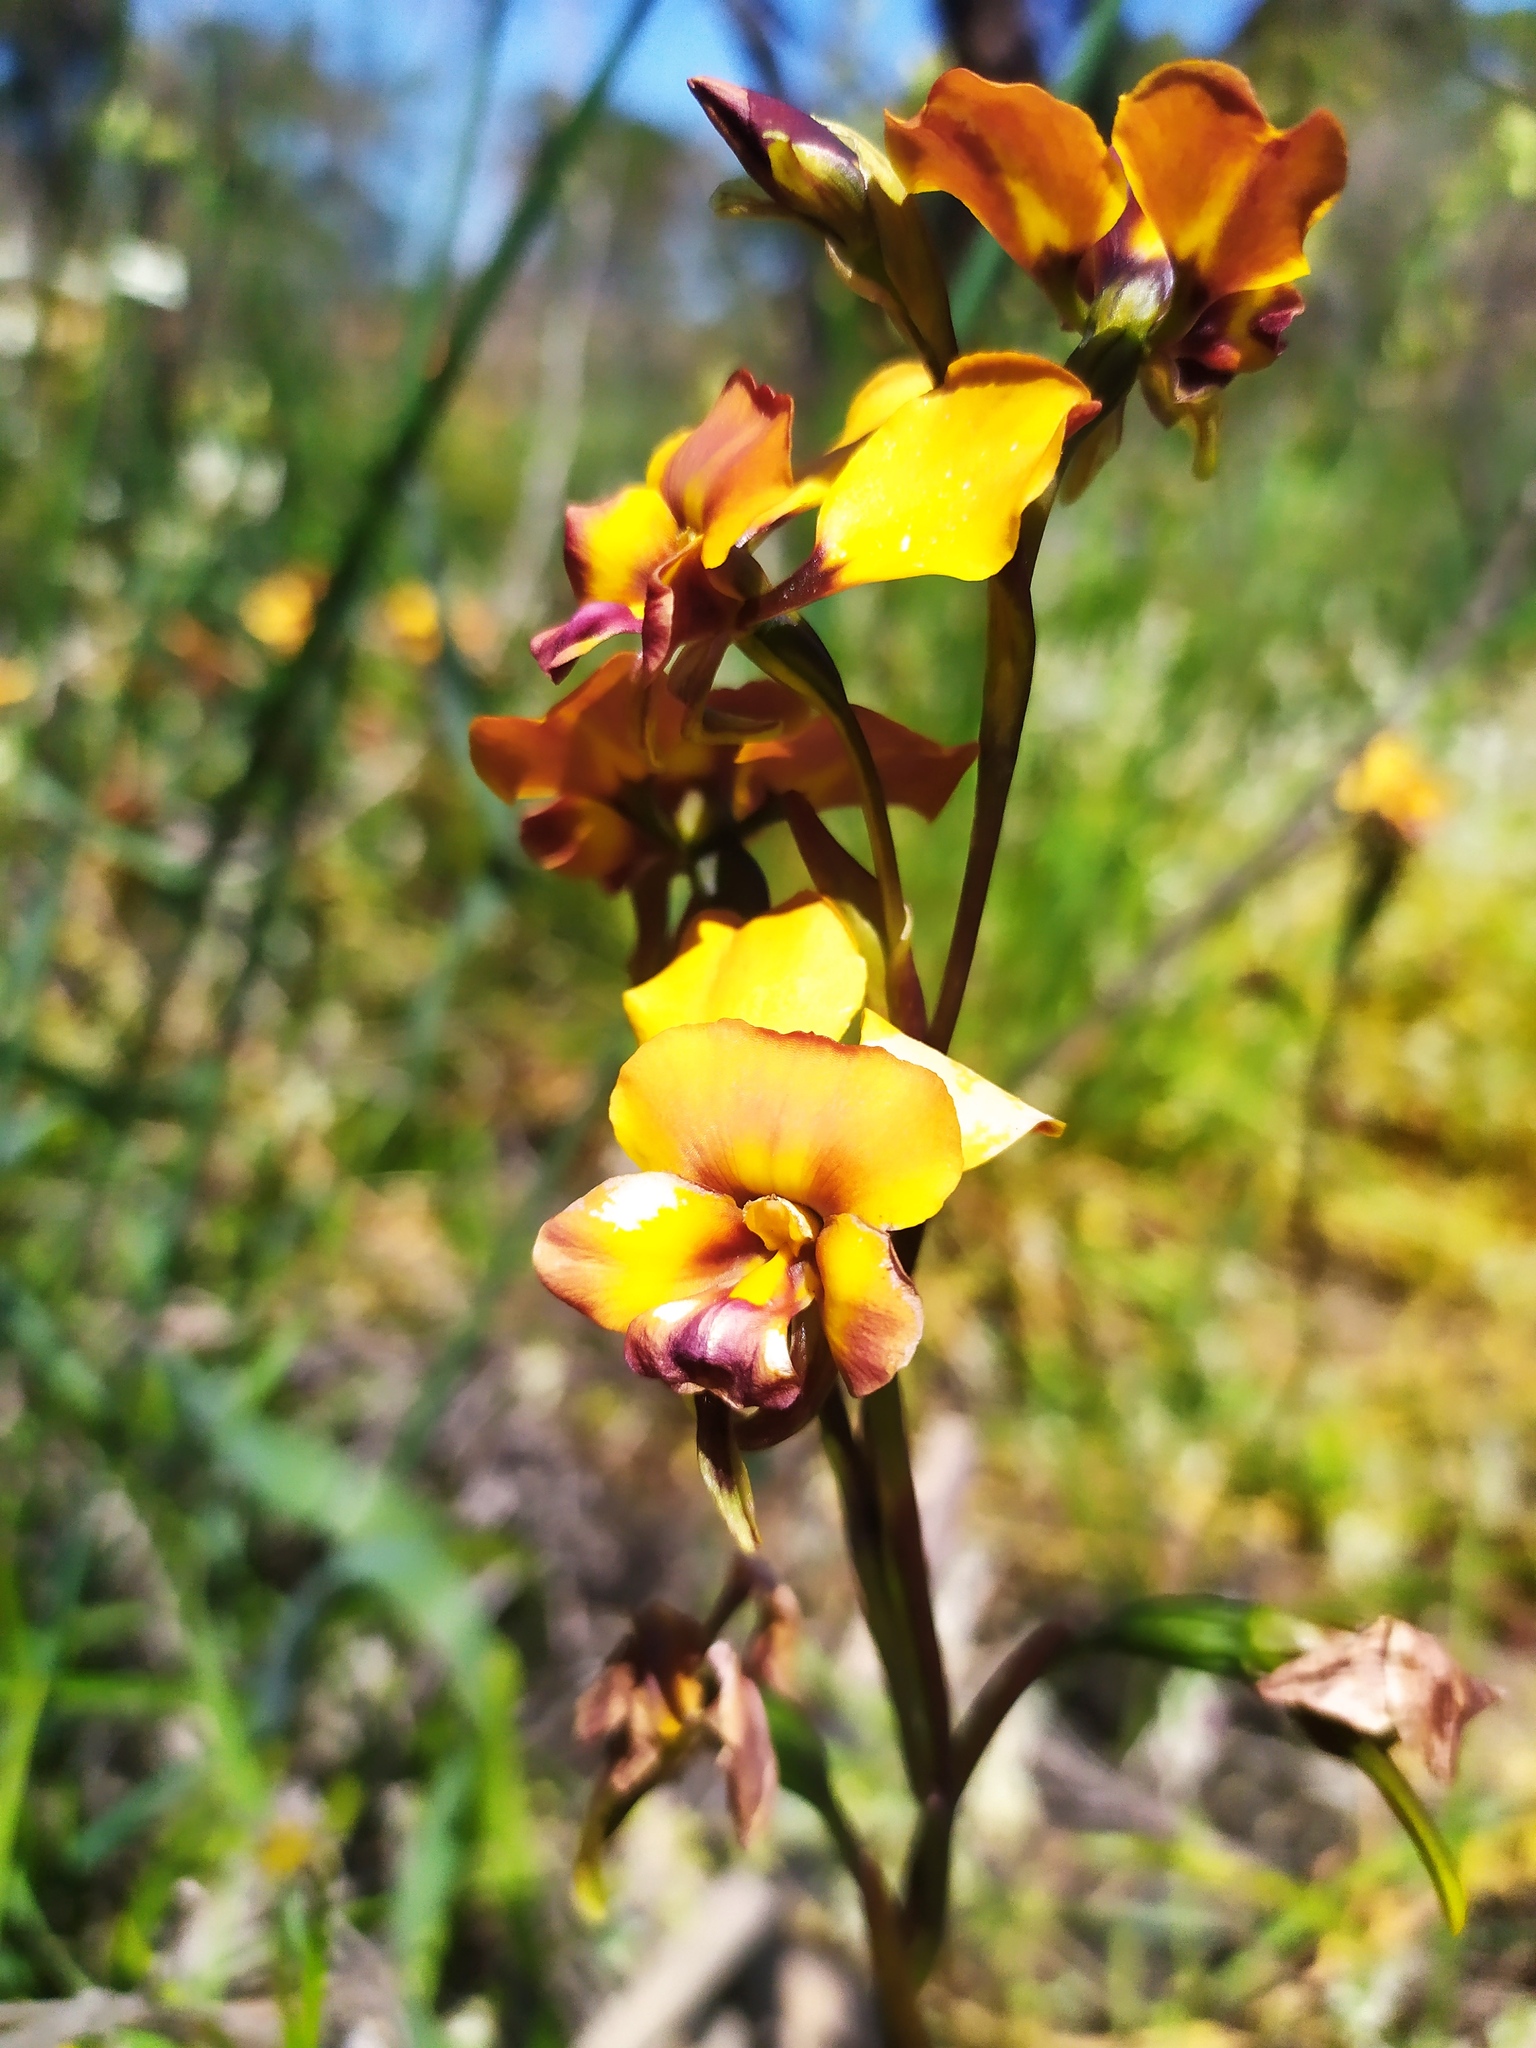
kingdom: Plantae
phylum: Tracheophyta
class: Liliopsida
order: Asparagales
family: Orchidaceae
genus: Diuris
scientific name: Diuris magnifica
